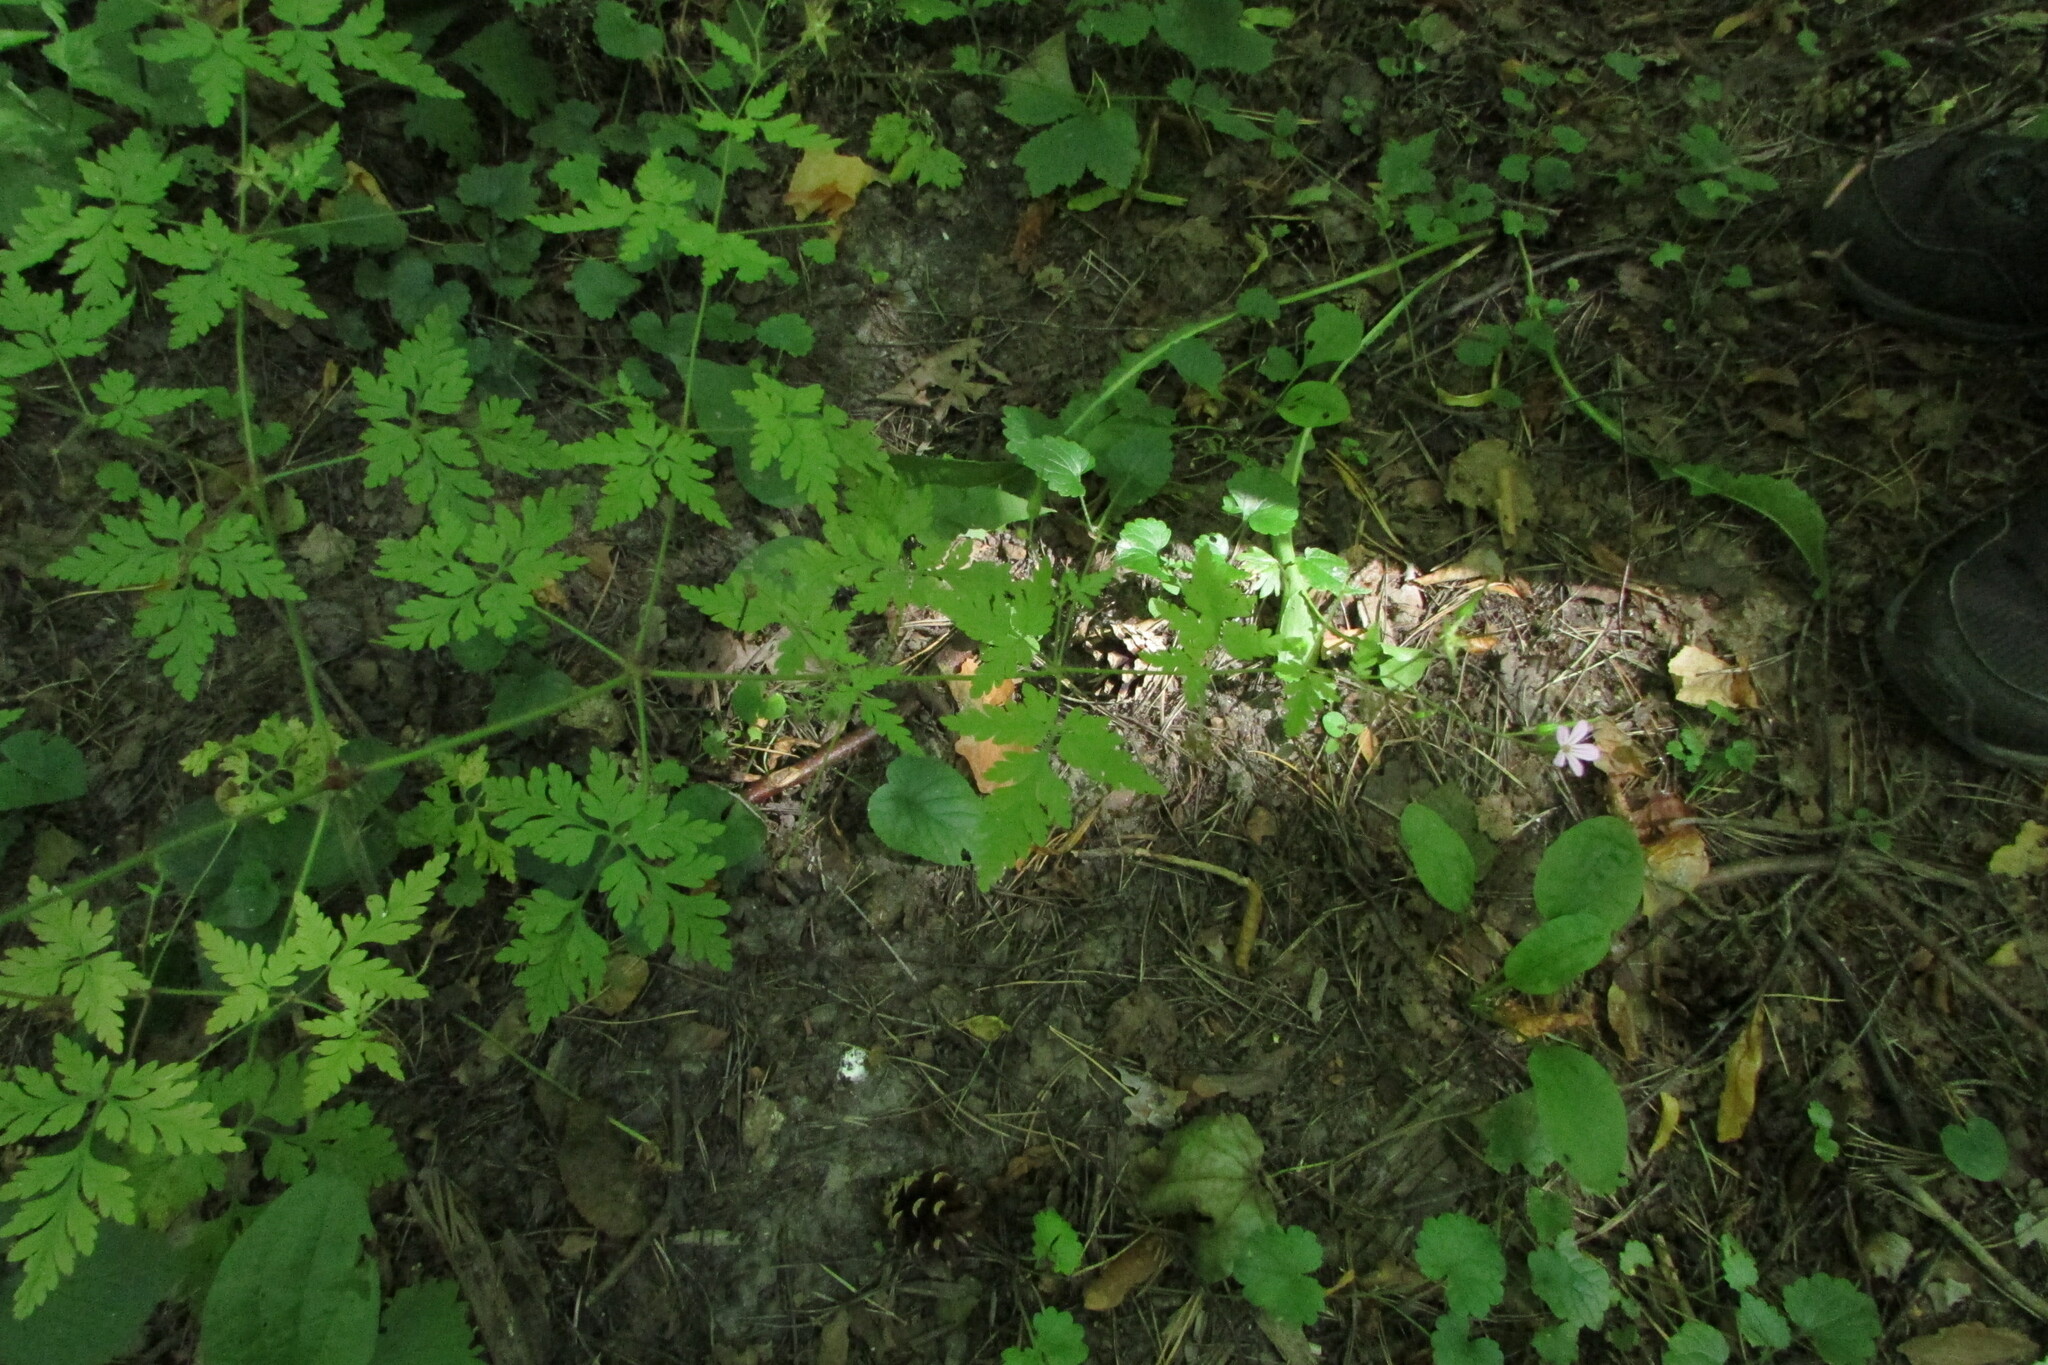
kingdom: Plantae
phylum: Tracheophyta
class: Magnoliopsida
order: Geraniales
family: Geraniaceae
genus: Geranium
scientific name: Geranium robertianum
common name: Herb-robert
